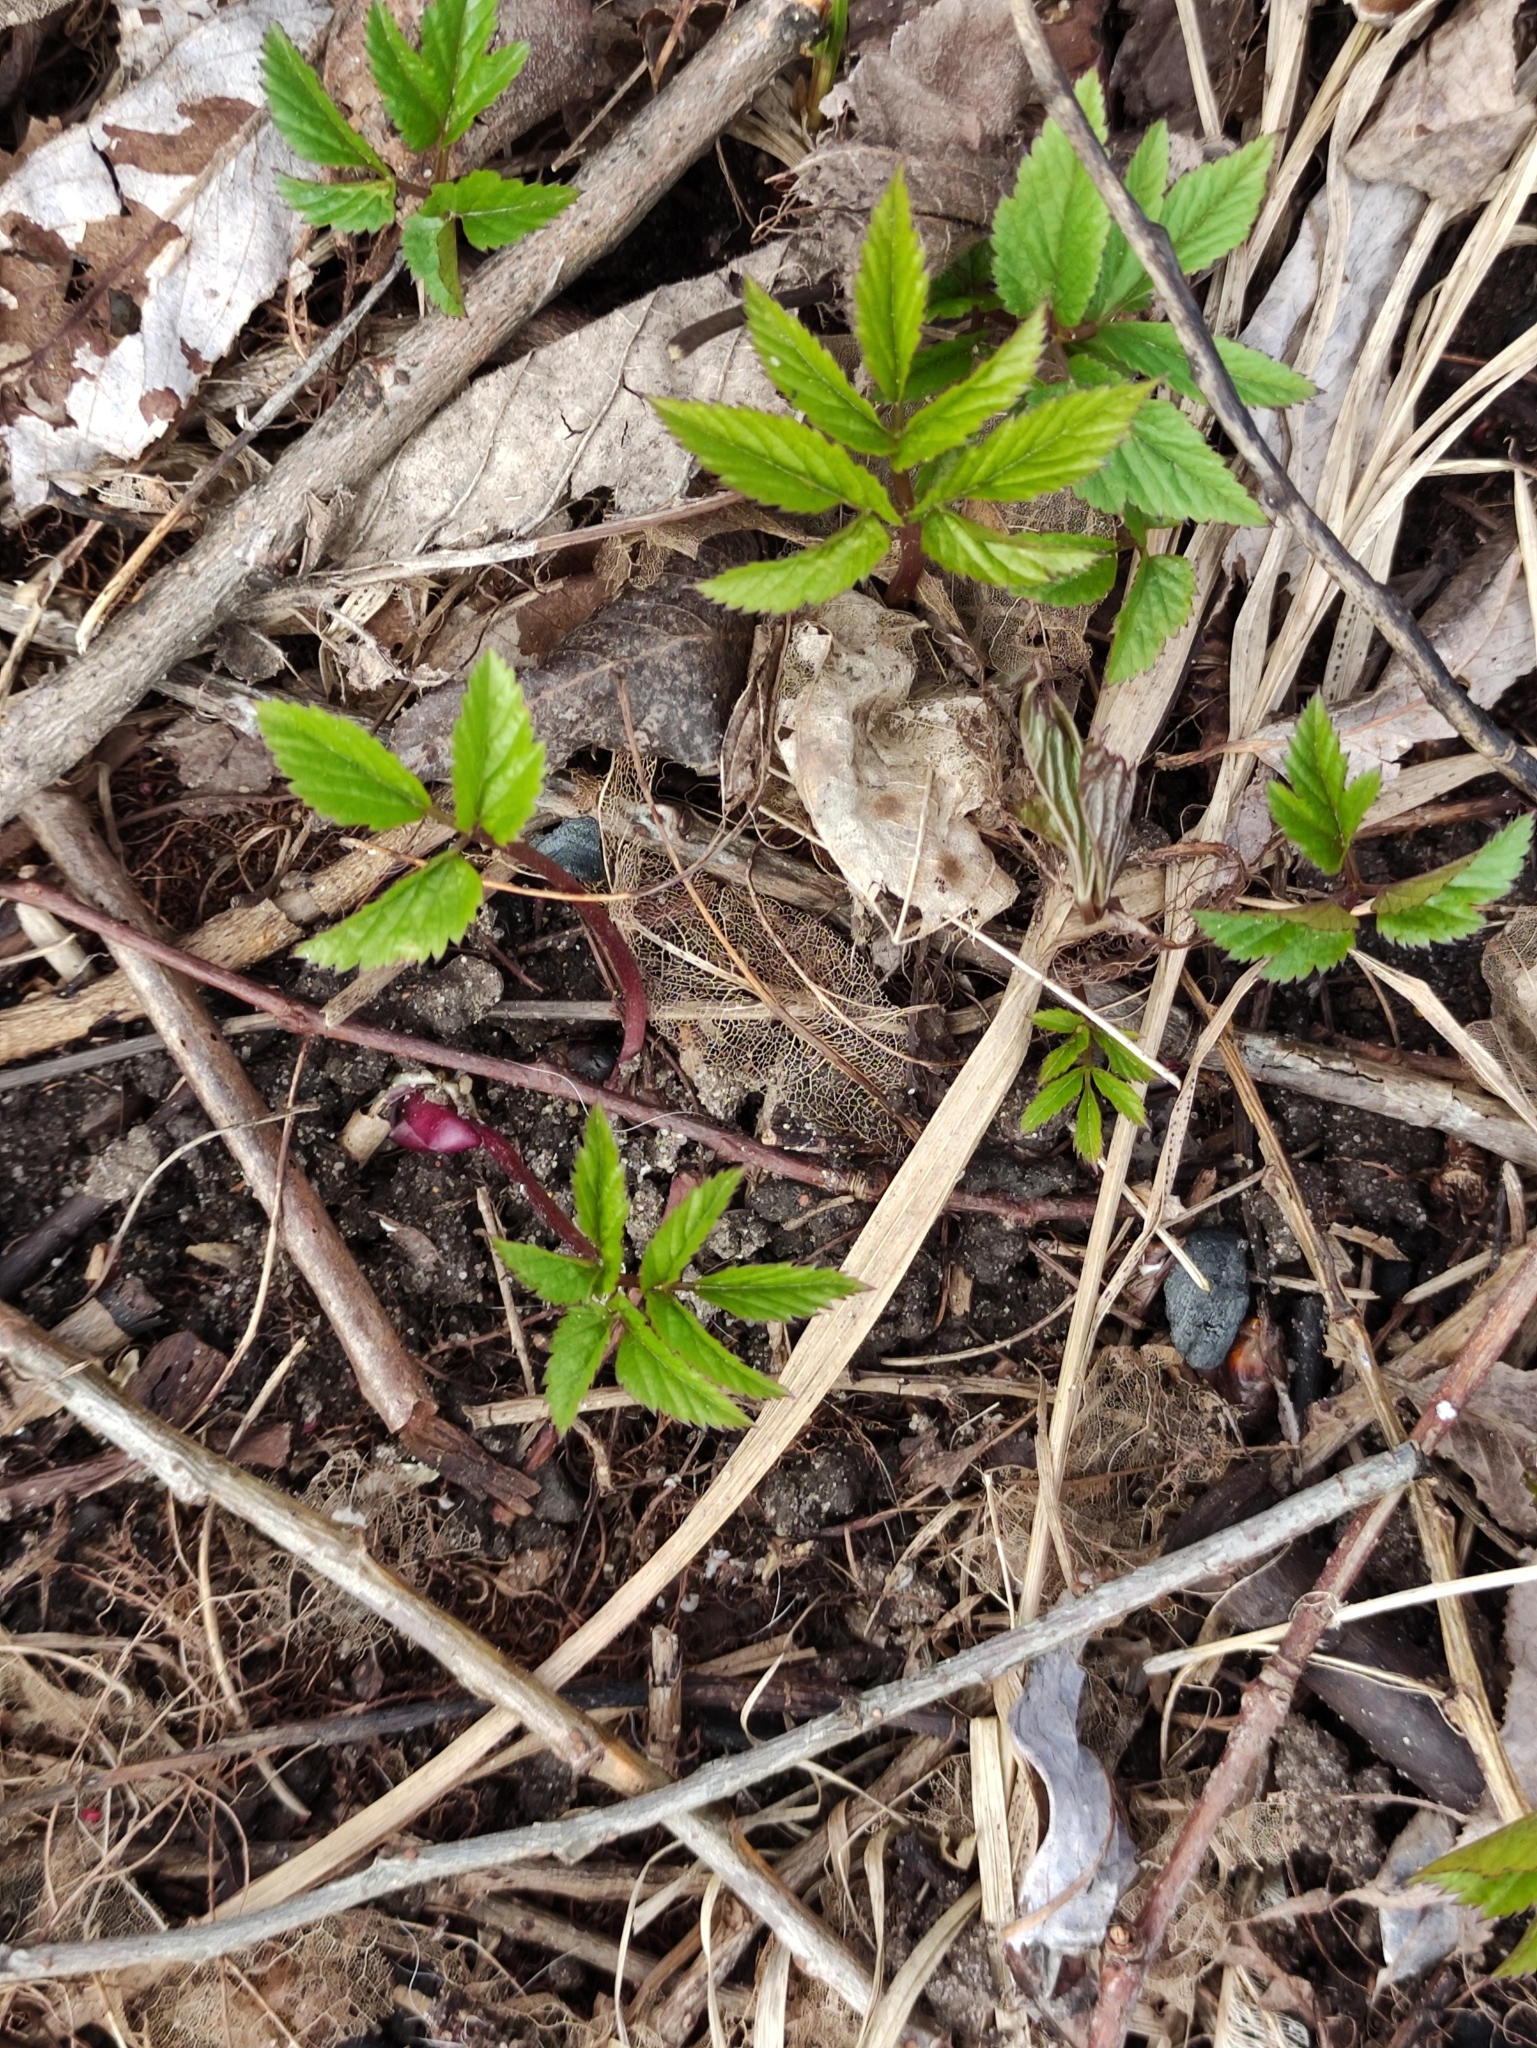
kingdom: Plantae
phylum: Tracheophyta
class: Magnoliopsida
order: Apiales
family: Apiaceae
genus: Aegopodium
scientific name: Aegopodium podagraria
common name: Ground-elder
